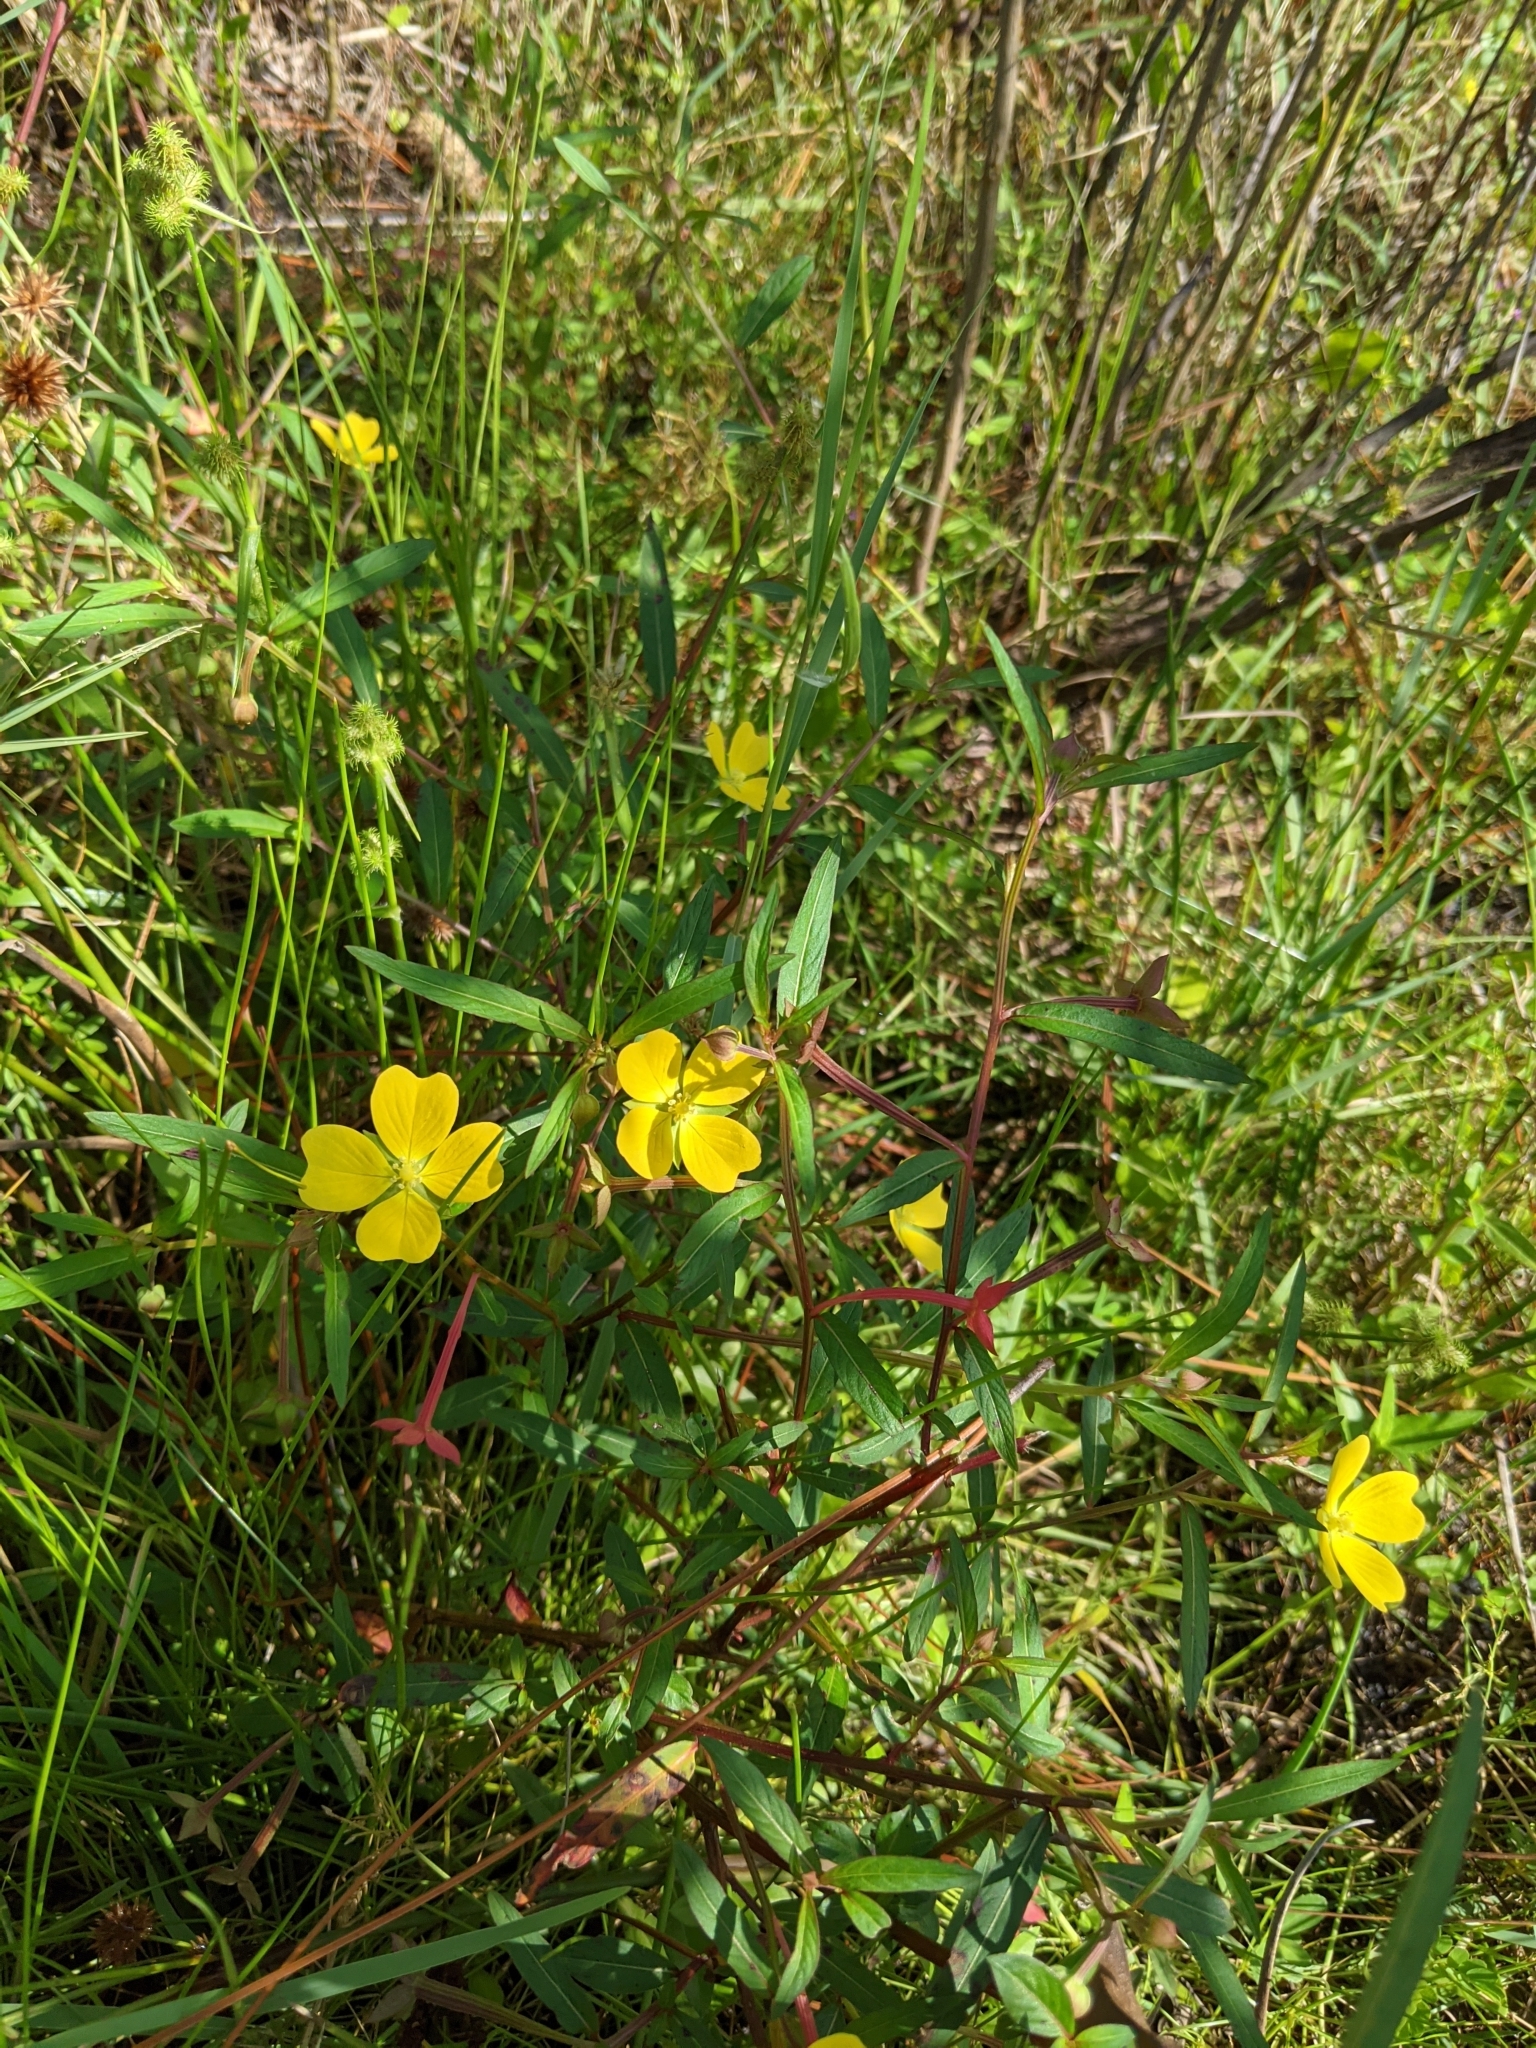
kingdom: Plantae
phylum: Tracheophyta
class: Magnoliopsida
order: Myrtales
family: Onagraceae
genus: Ludwigia
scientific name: Ludwigia octovalvis
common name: Water-primrose
